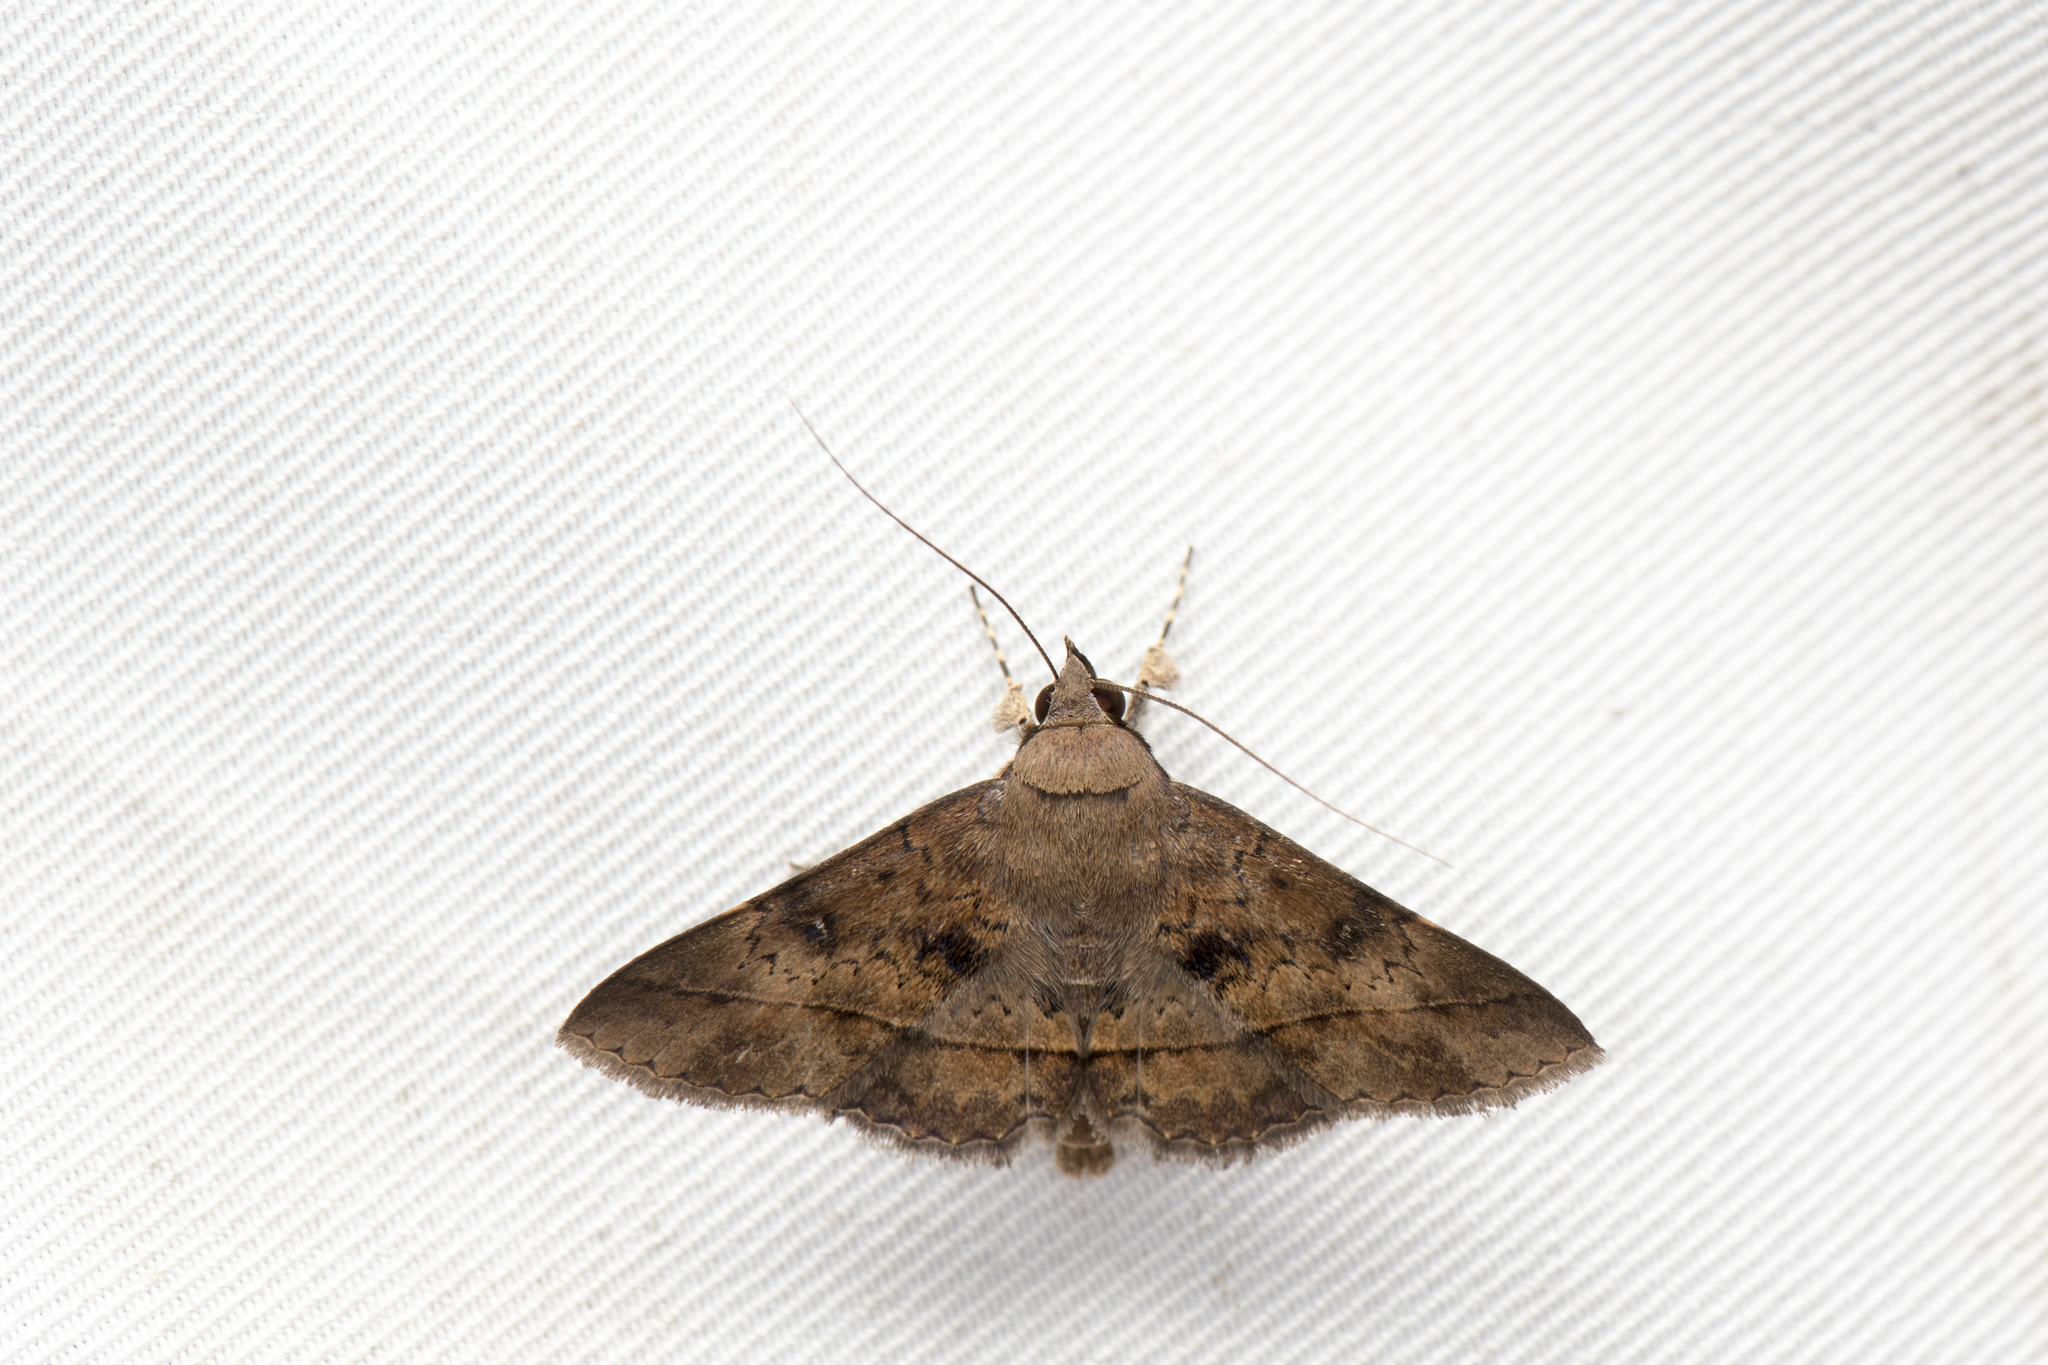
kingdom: Animalia
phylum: Arthropoda
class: Insecta
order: Lepidoptera
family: Erebidae
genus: Hypospila
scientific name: Hypospila bolinoides
